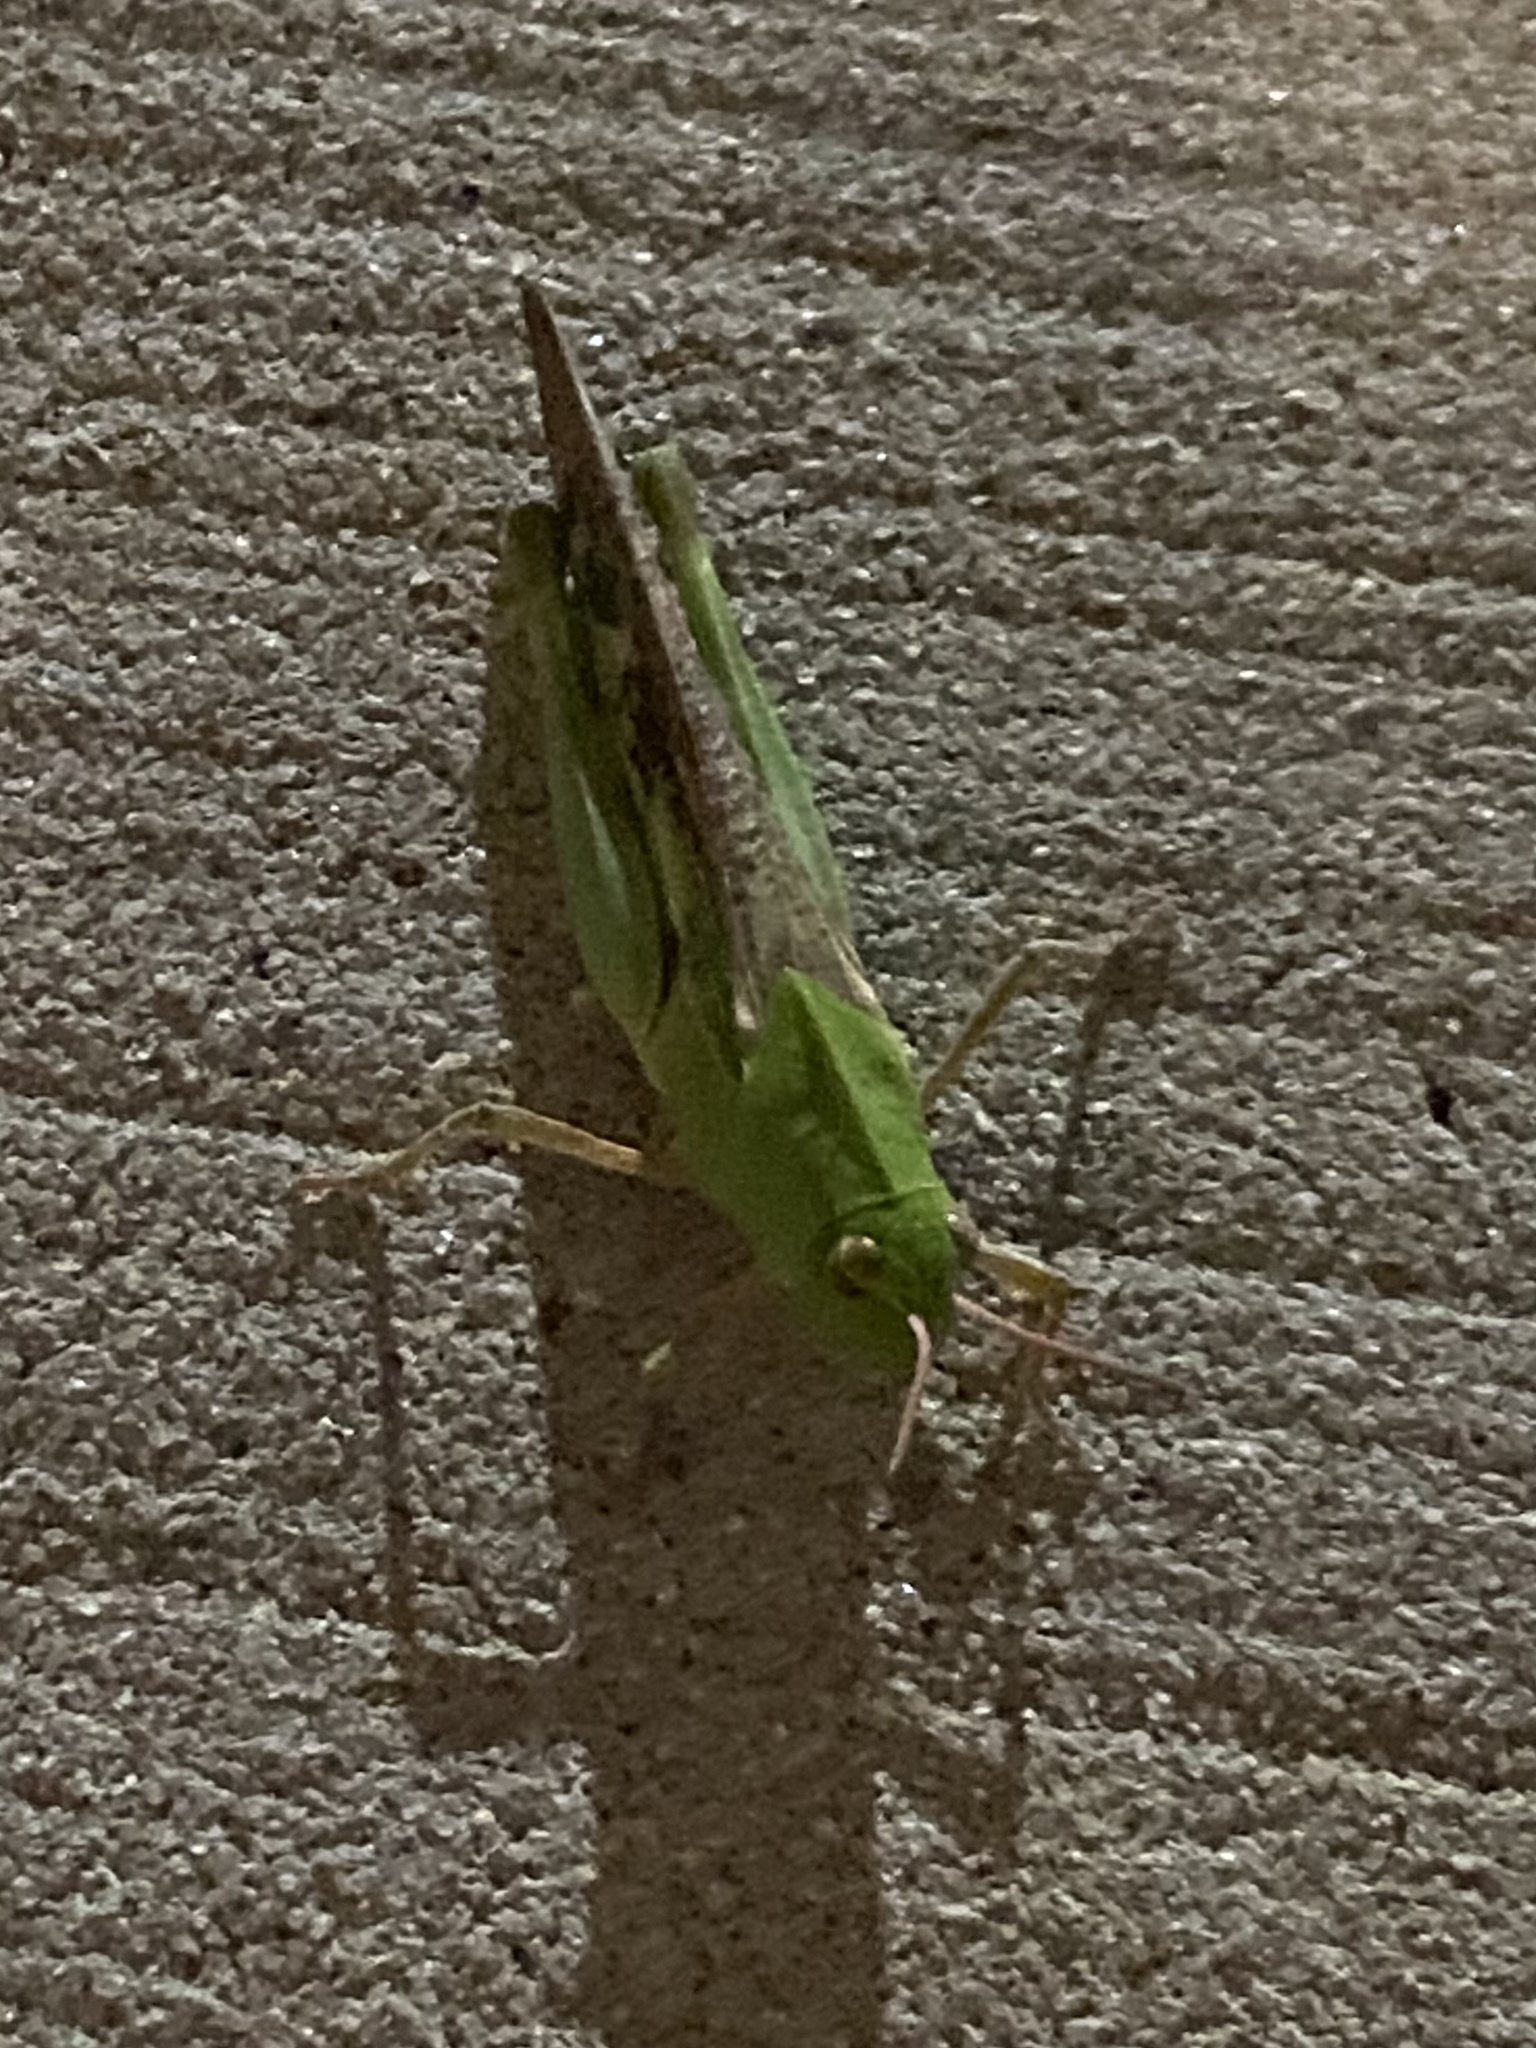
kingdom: Animalia
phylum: Arthropoda
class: Insecta
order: Orthoptera
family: Acrididae
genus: Chortophaga
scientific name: Chortophaga viridifasciata
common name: Green-striped grasshopper
